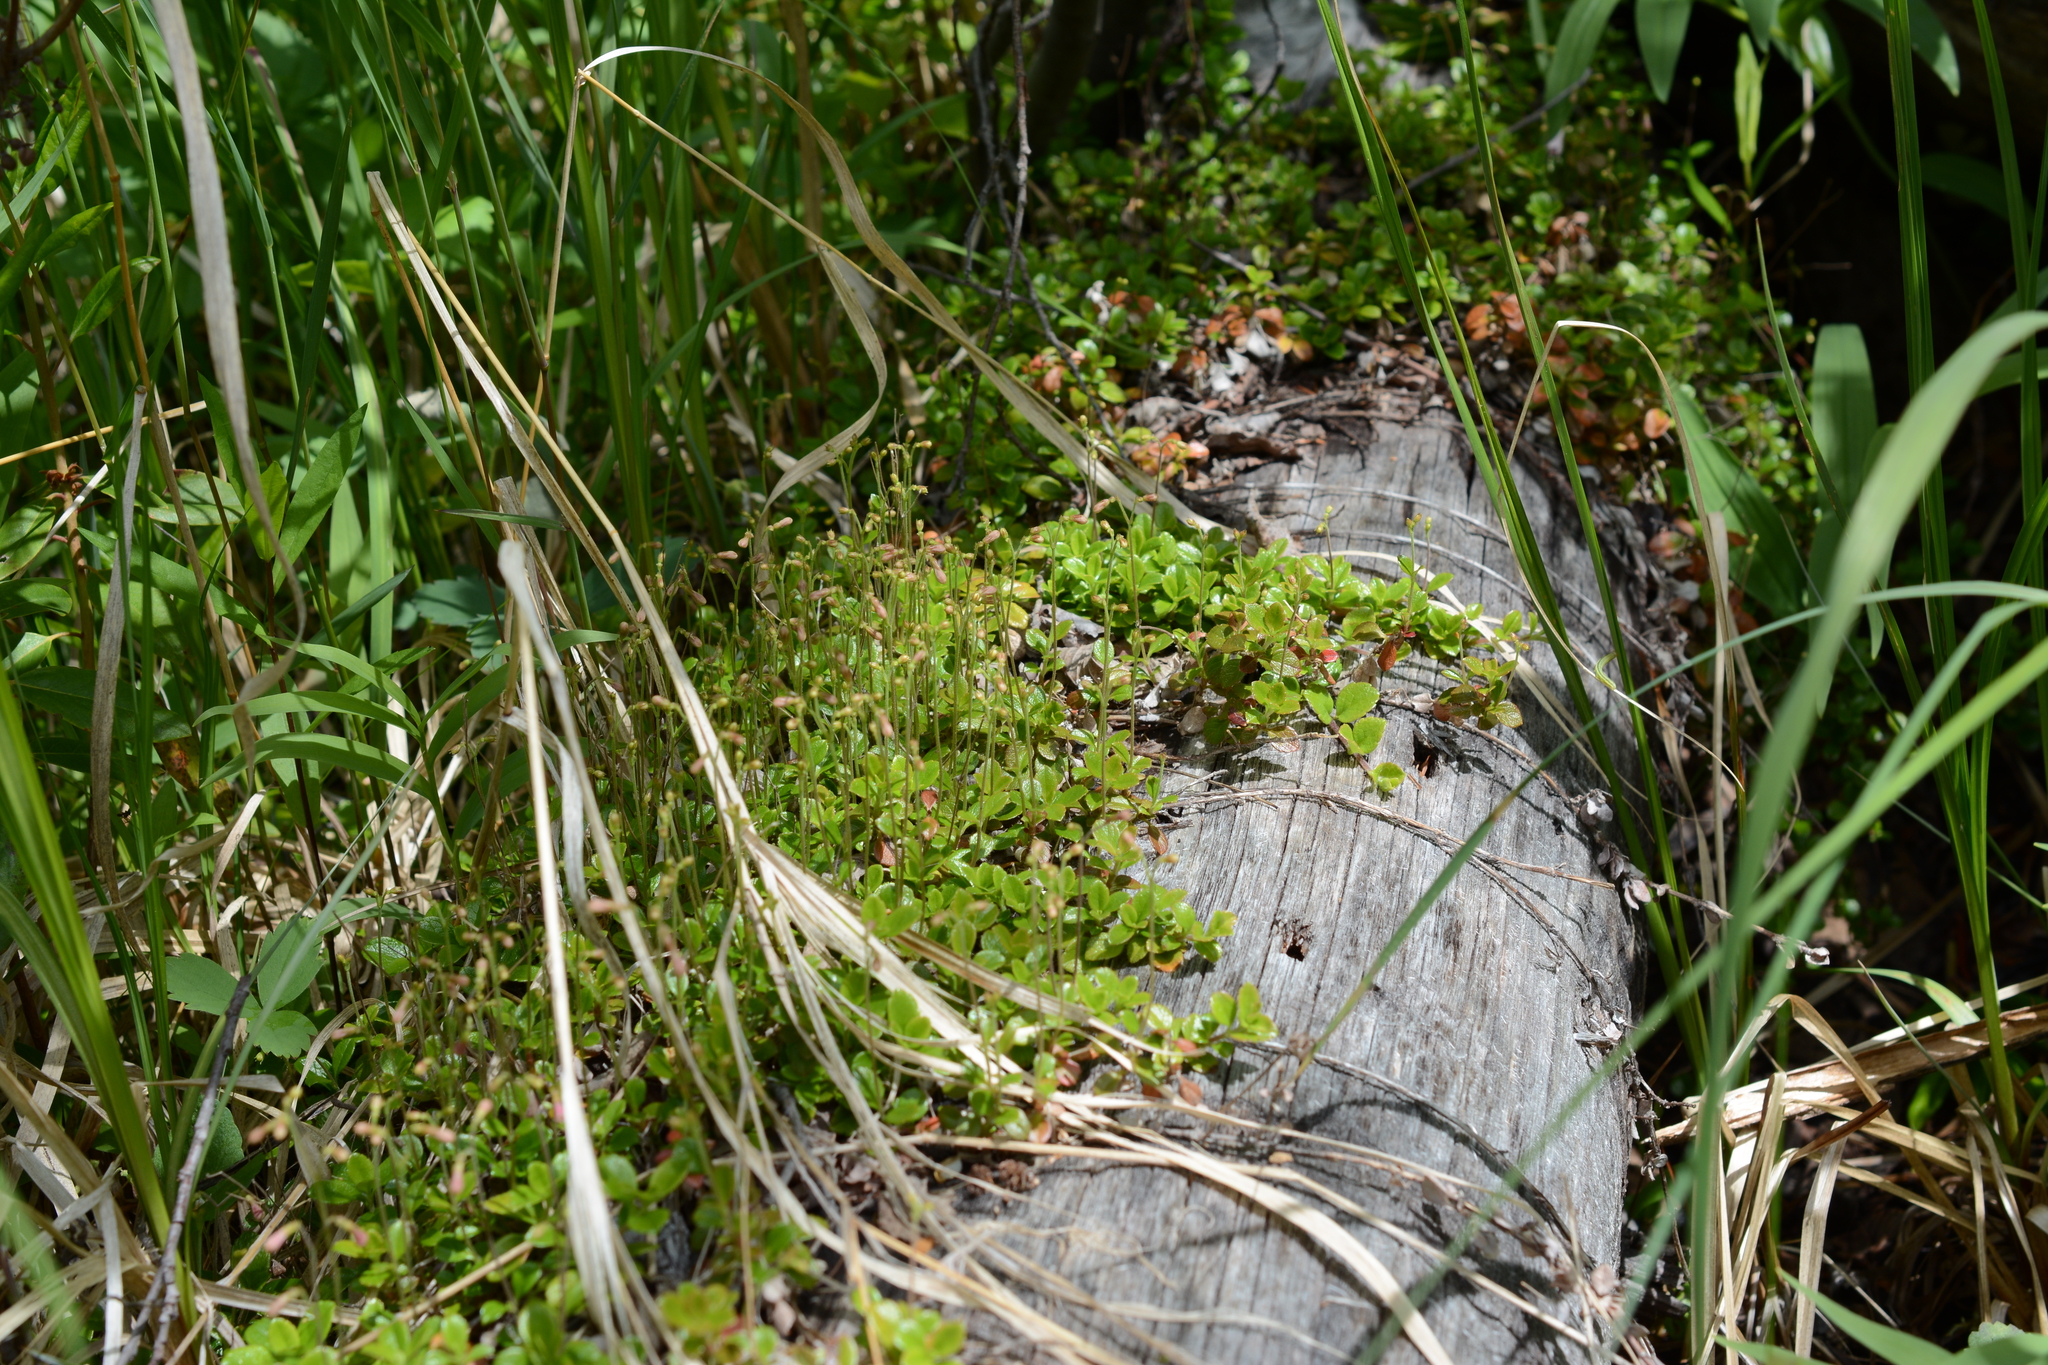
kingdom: Plantae
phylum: Tracheophyta
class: Magnoliopsida
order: Dipsacales
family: Caprifoliaceae
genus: Linnaea
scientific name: Linnaea borealis
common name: Twinflower
